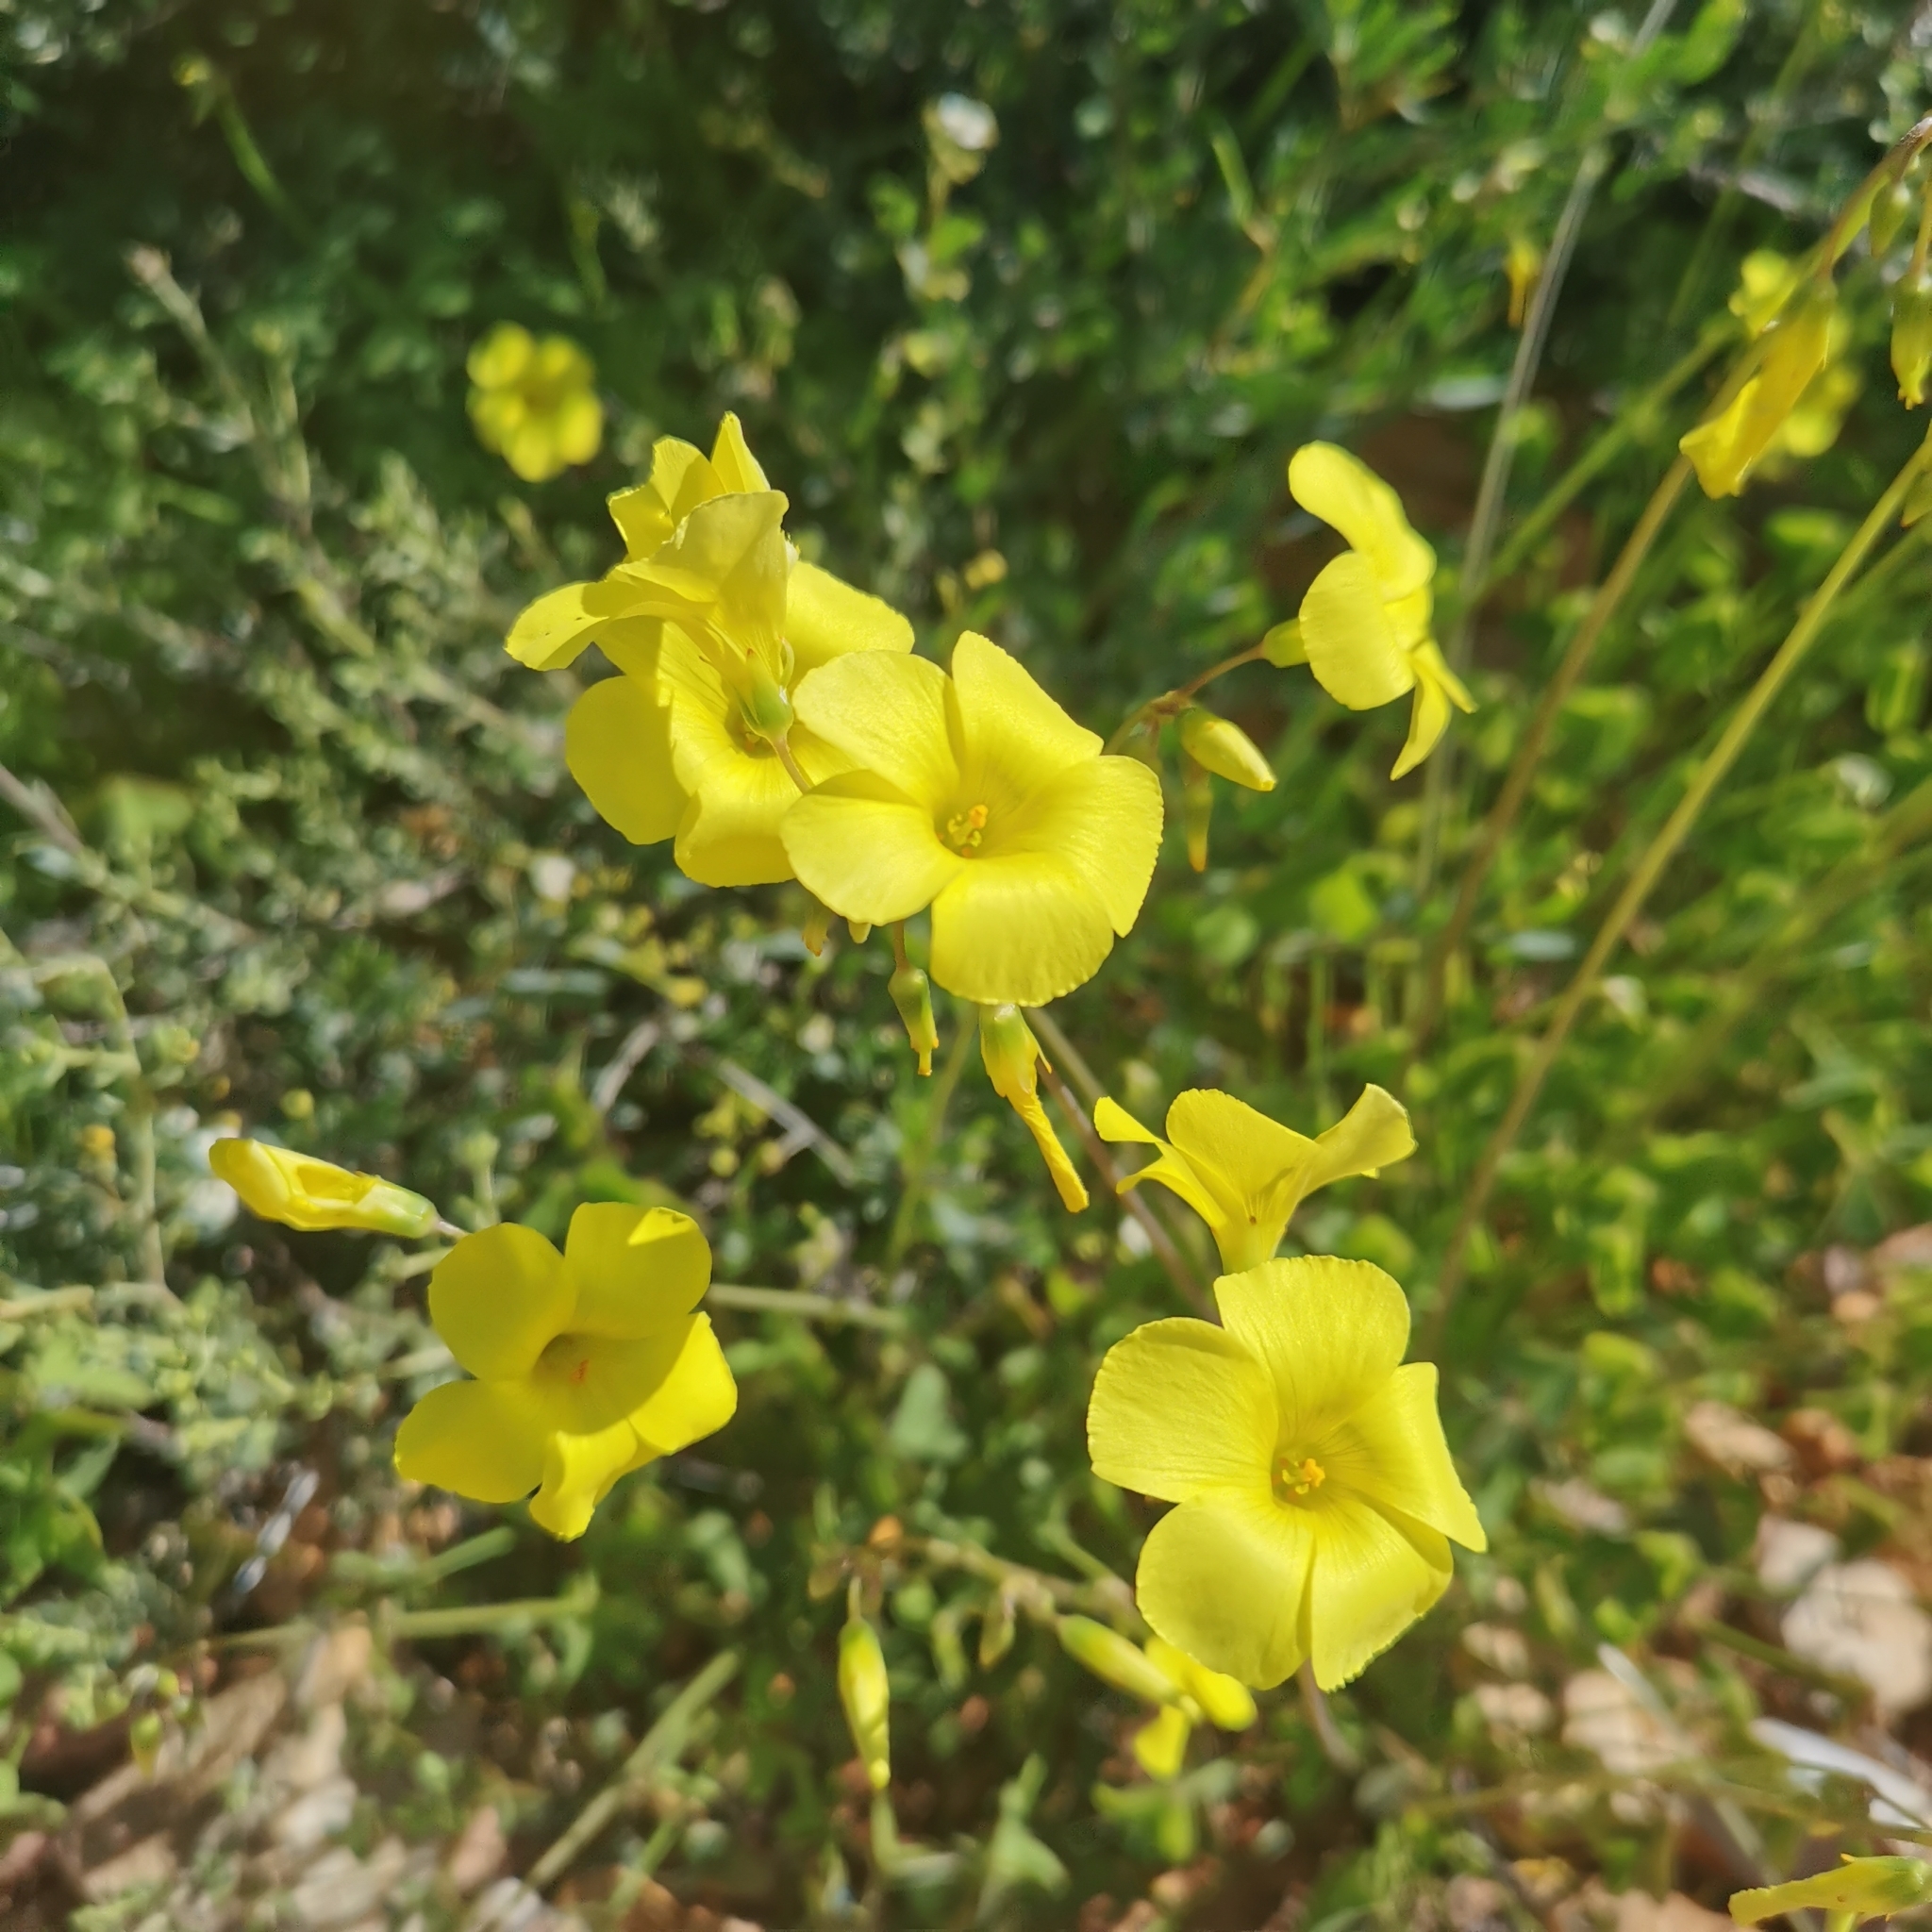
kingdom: Plantae
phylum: Tracheophyta
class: Magnoliopsida
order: Oxalidales
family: Oxalidaceae
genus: Oxalis
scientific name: Oxalis pes-caprae
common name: Bermuda-buttercup
